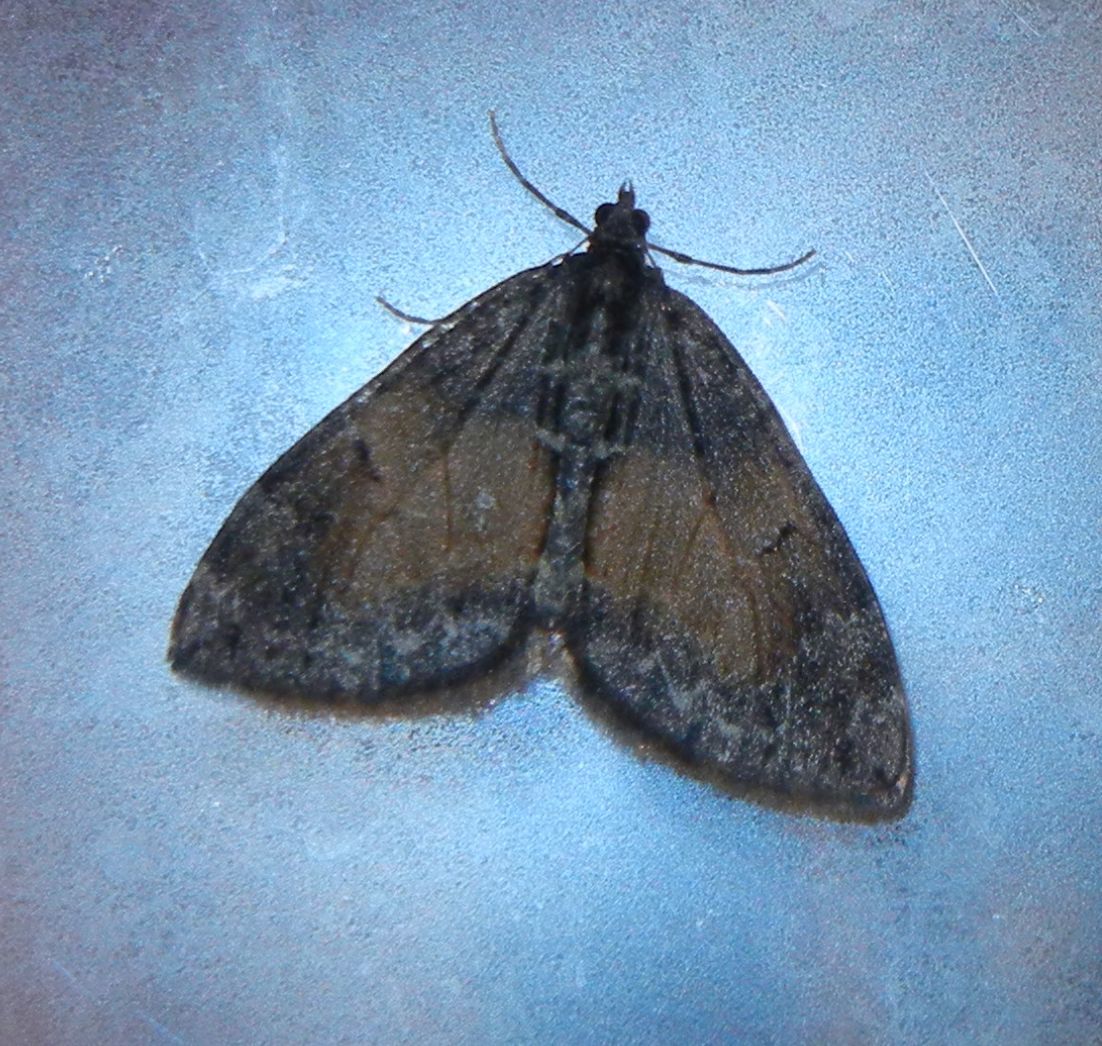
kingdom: Animalia
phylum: Arthropoda
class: Insecta
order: Lepidoptera
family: Geometridae
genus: Dysstroma
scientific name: Dysstroma truncata
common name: Common marbled carpet
